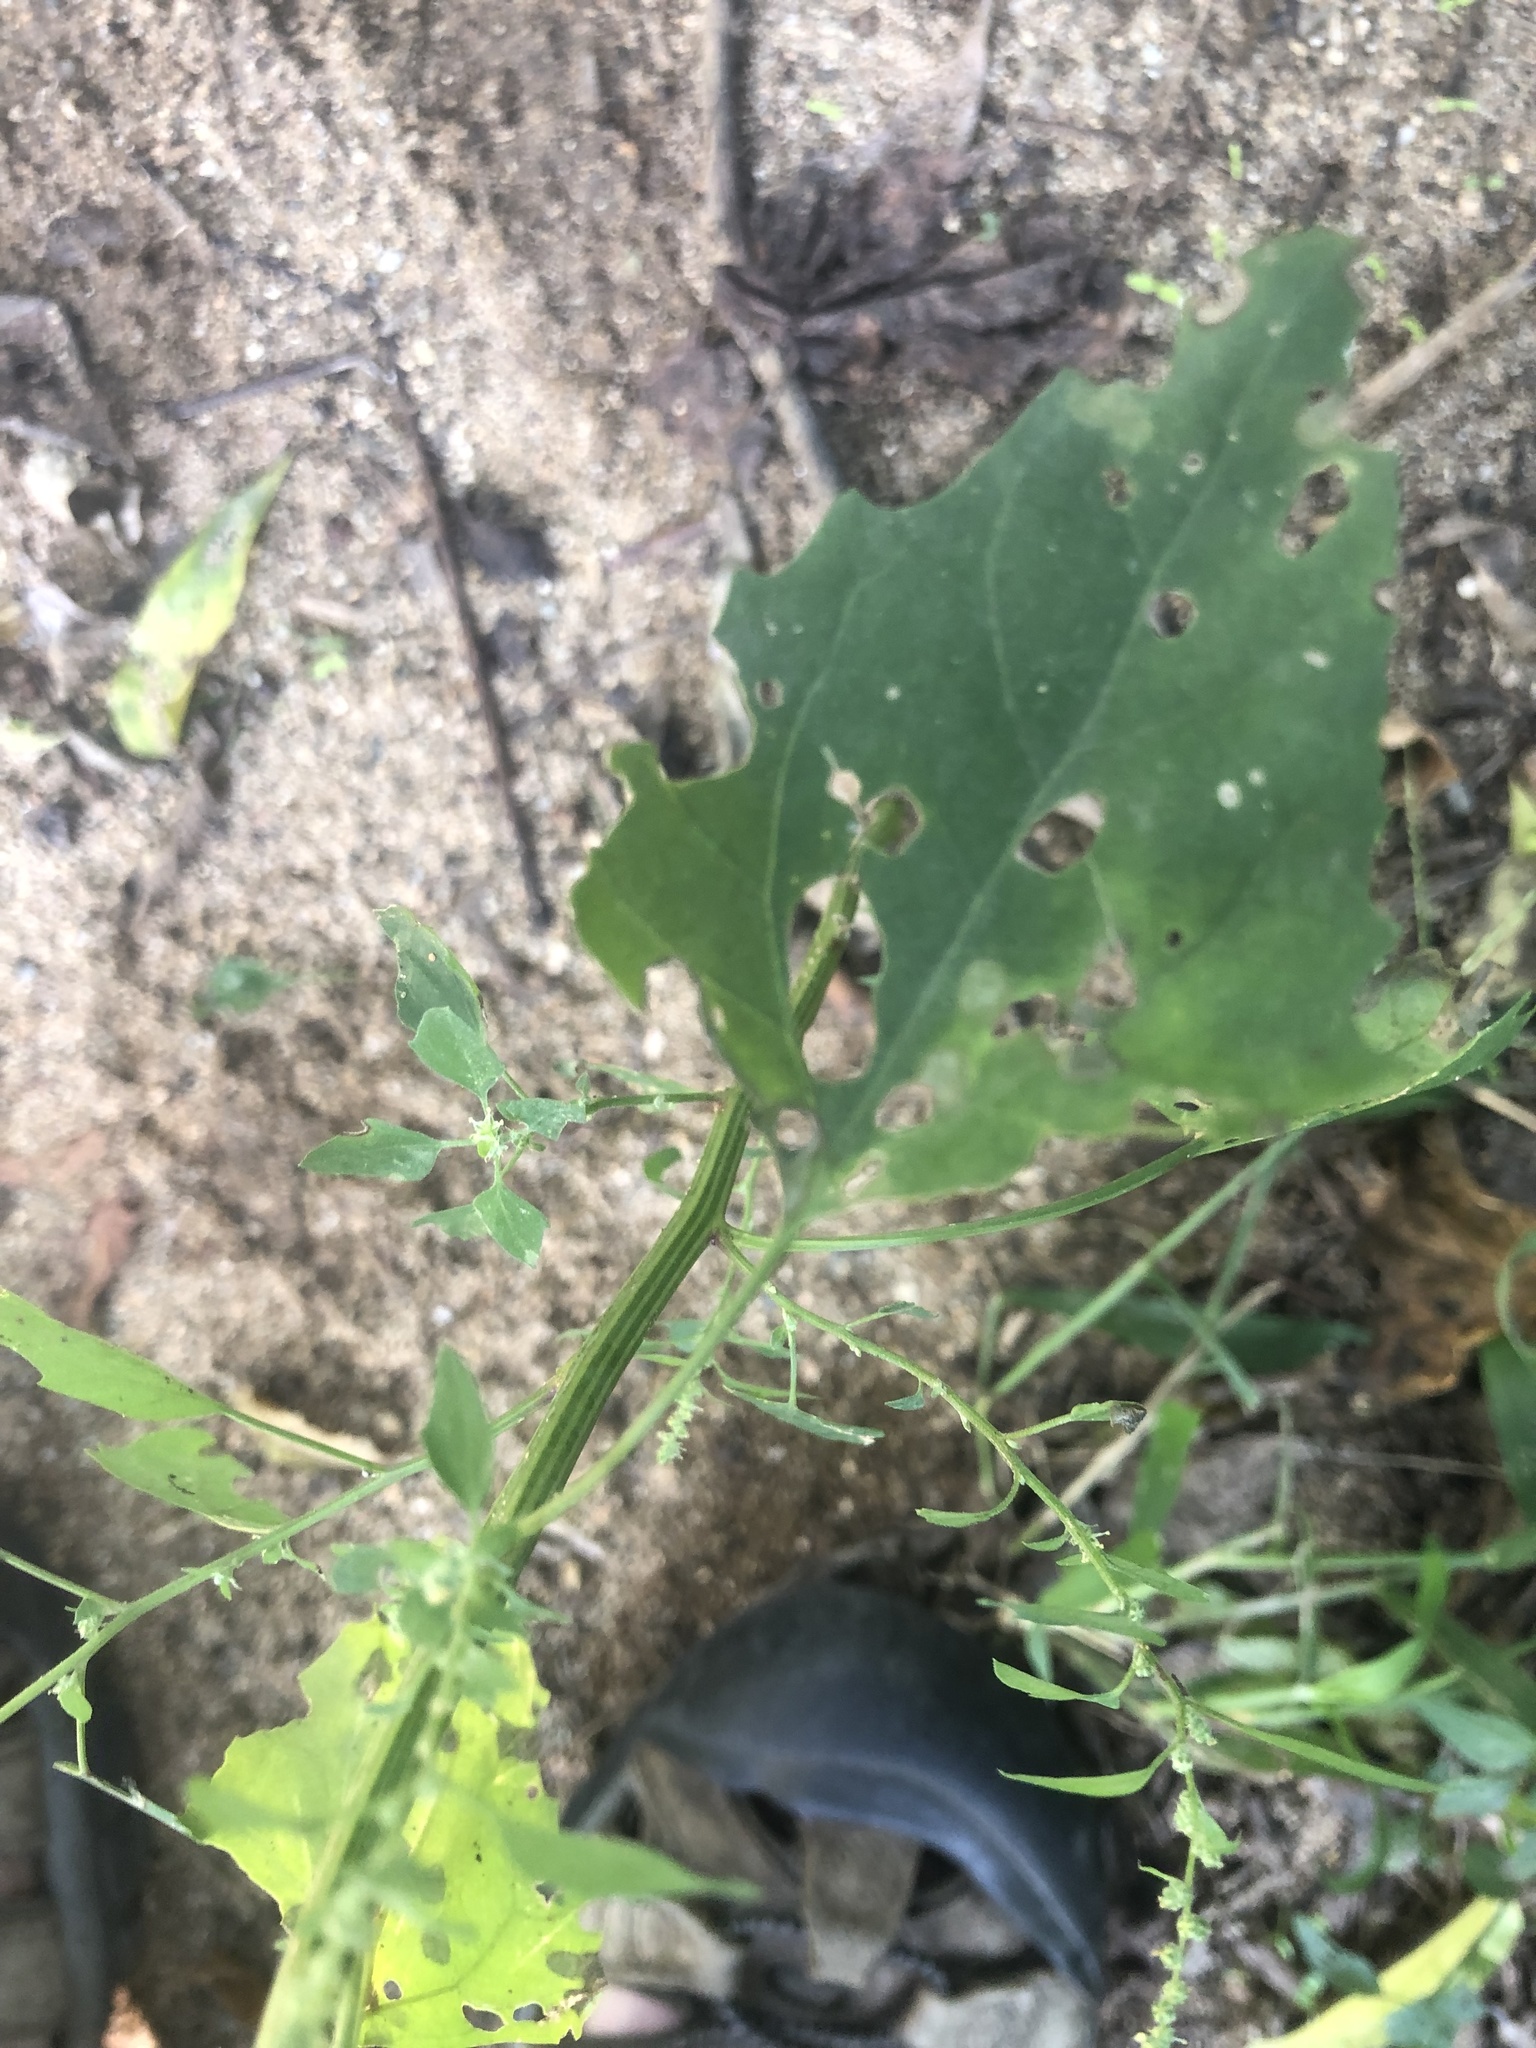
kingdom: Plantae
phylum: Tracheophyta
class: Magnoliopsida
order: Caryophyllales
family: Amaranthaceae
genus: Chenopodium
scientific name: Chenopodium album
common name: Fat-hen
